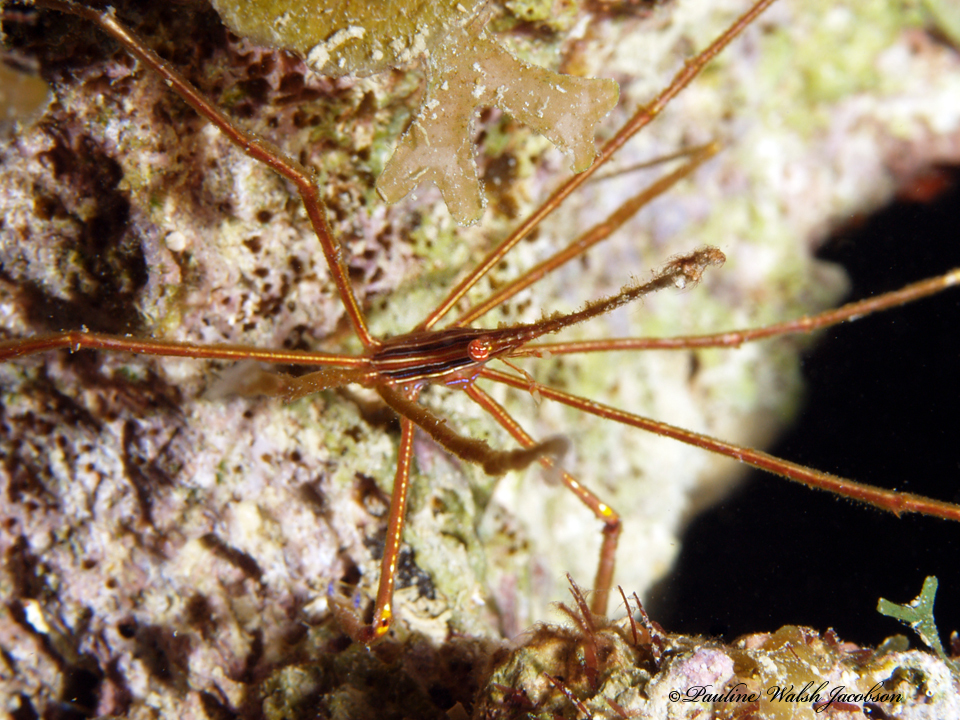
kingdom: Animalia
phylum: Arthropoda
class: Malacostraca
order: Decapoda
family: Inachoididae
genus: Stenorhynchus
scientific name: Stenorhynchus seticornis
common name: Arrow crab
